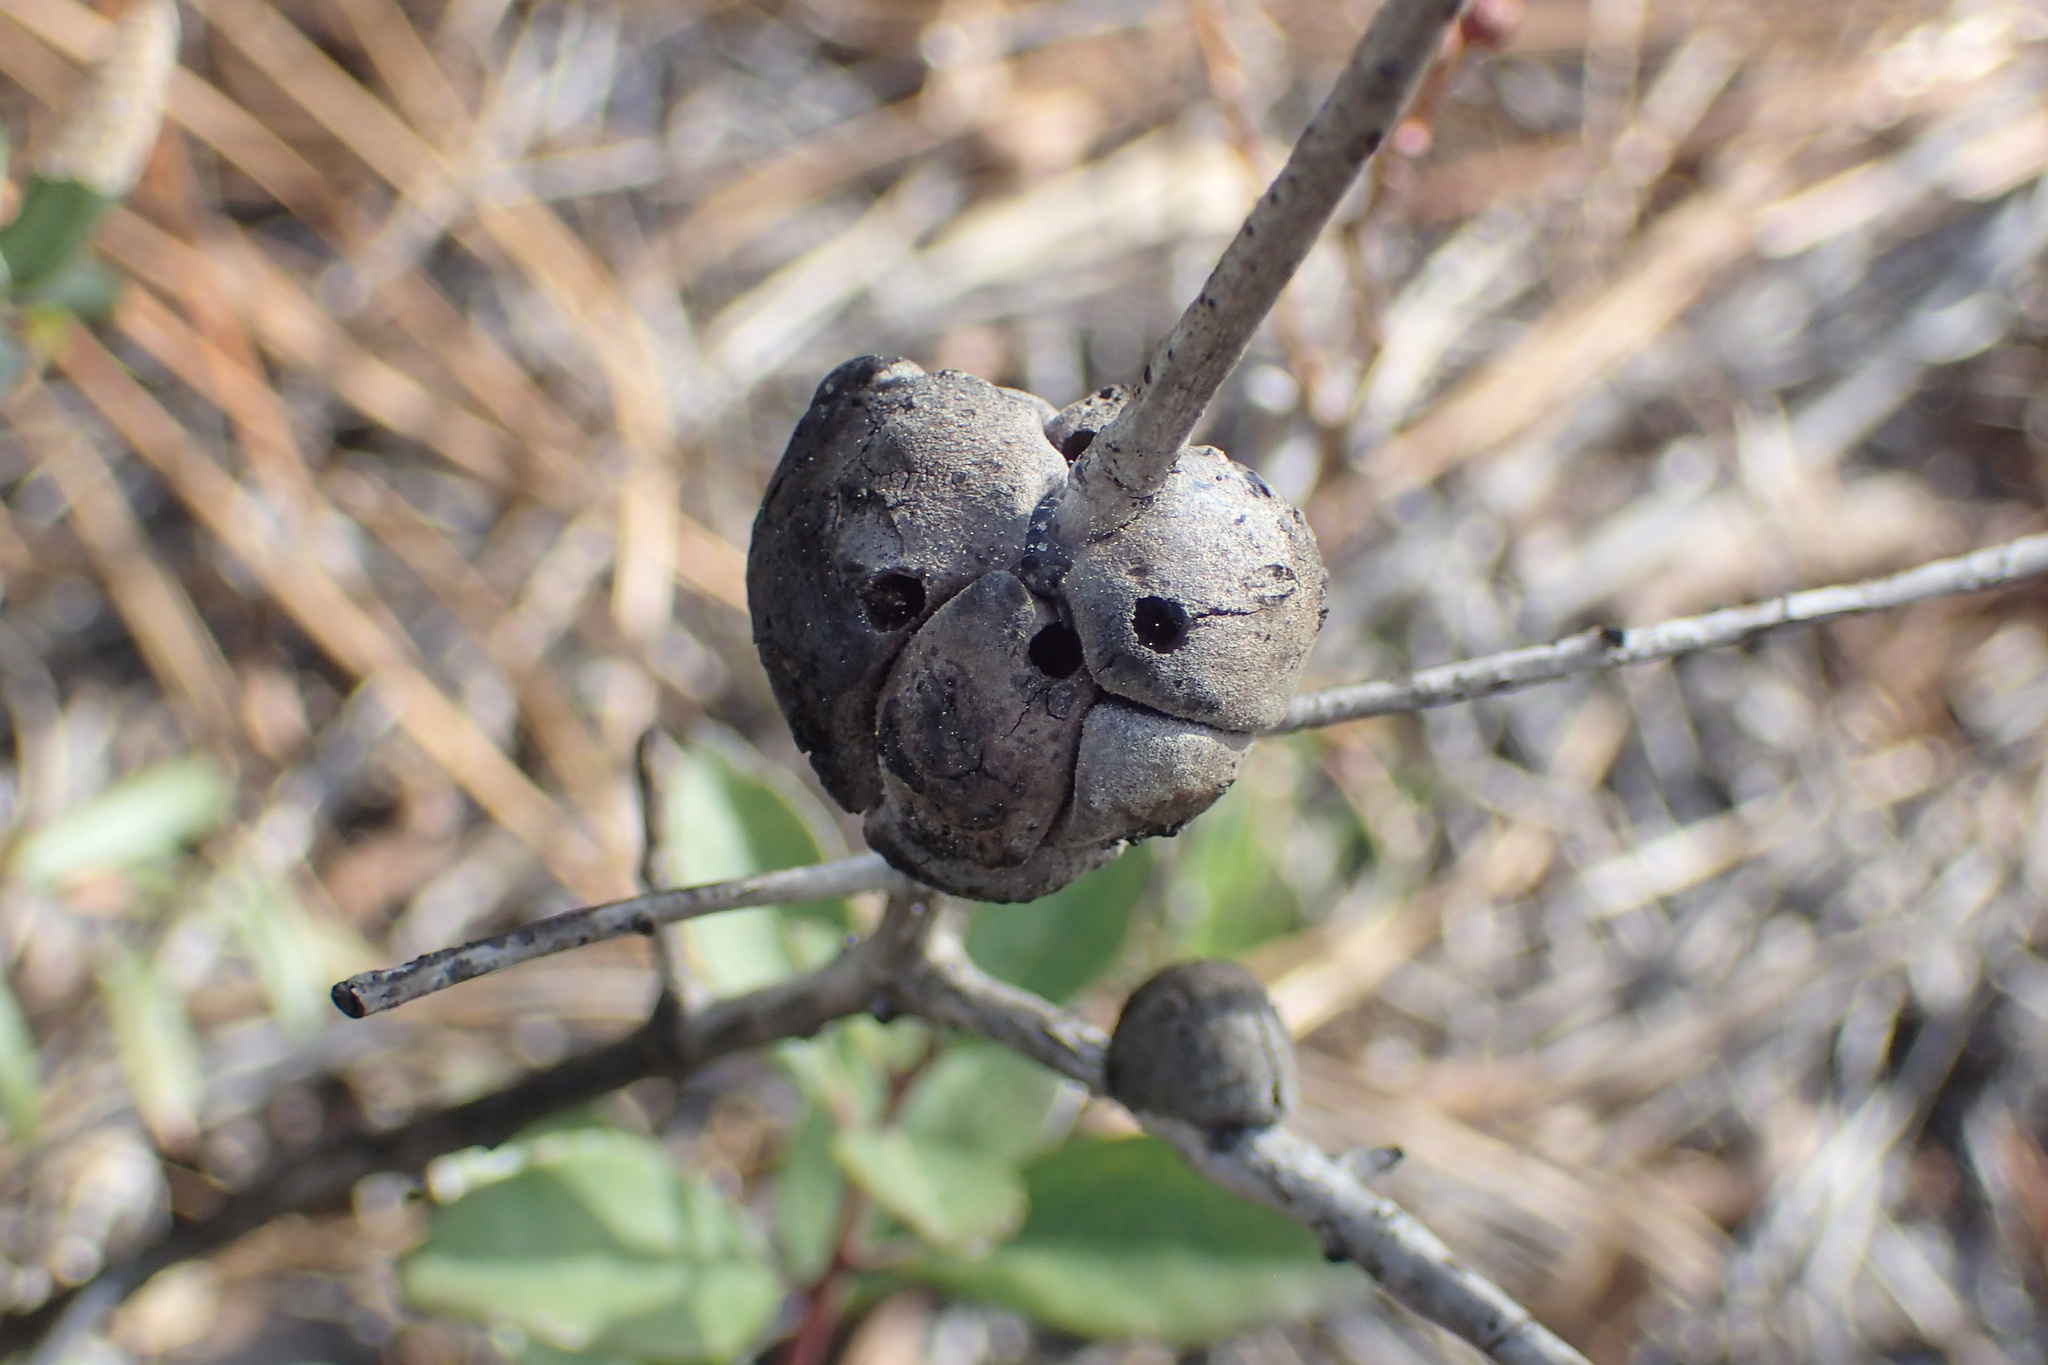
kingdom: Animalia
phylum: Arthropoda
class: Insecta
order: Hymenoptera
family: Cynipidae
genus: Callirhytis
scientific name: Callirhytis
